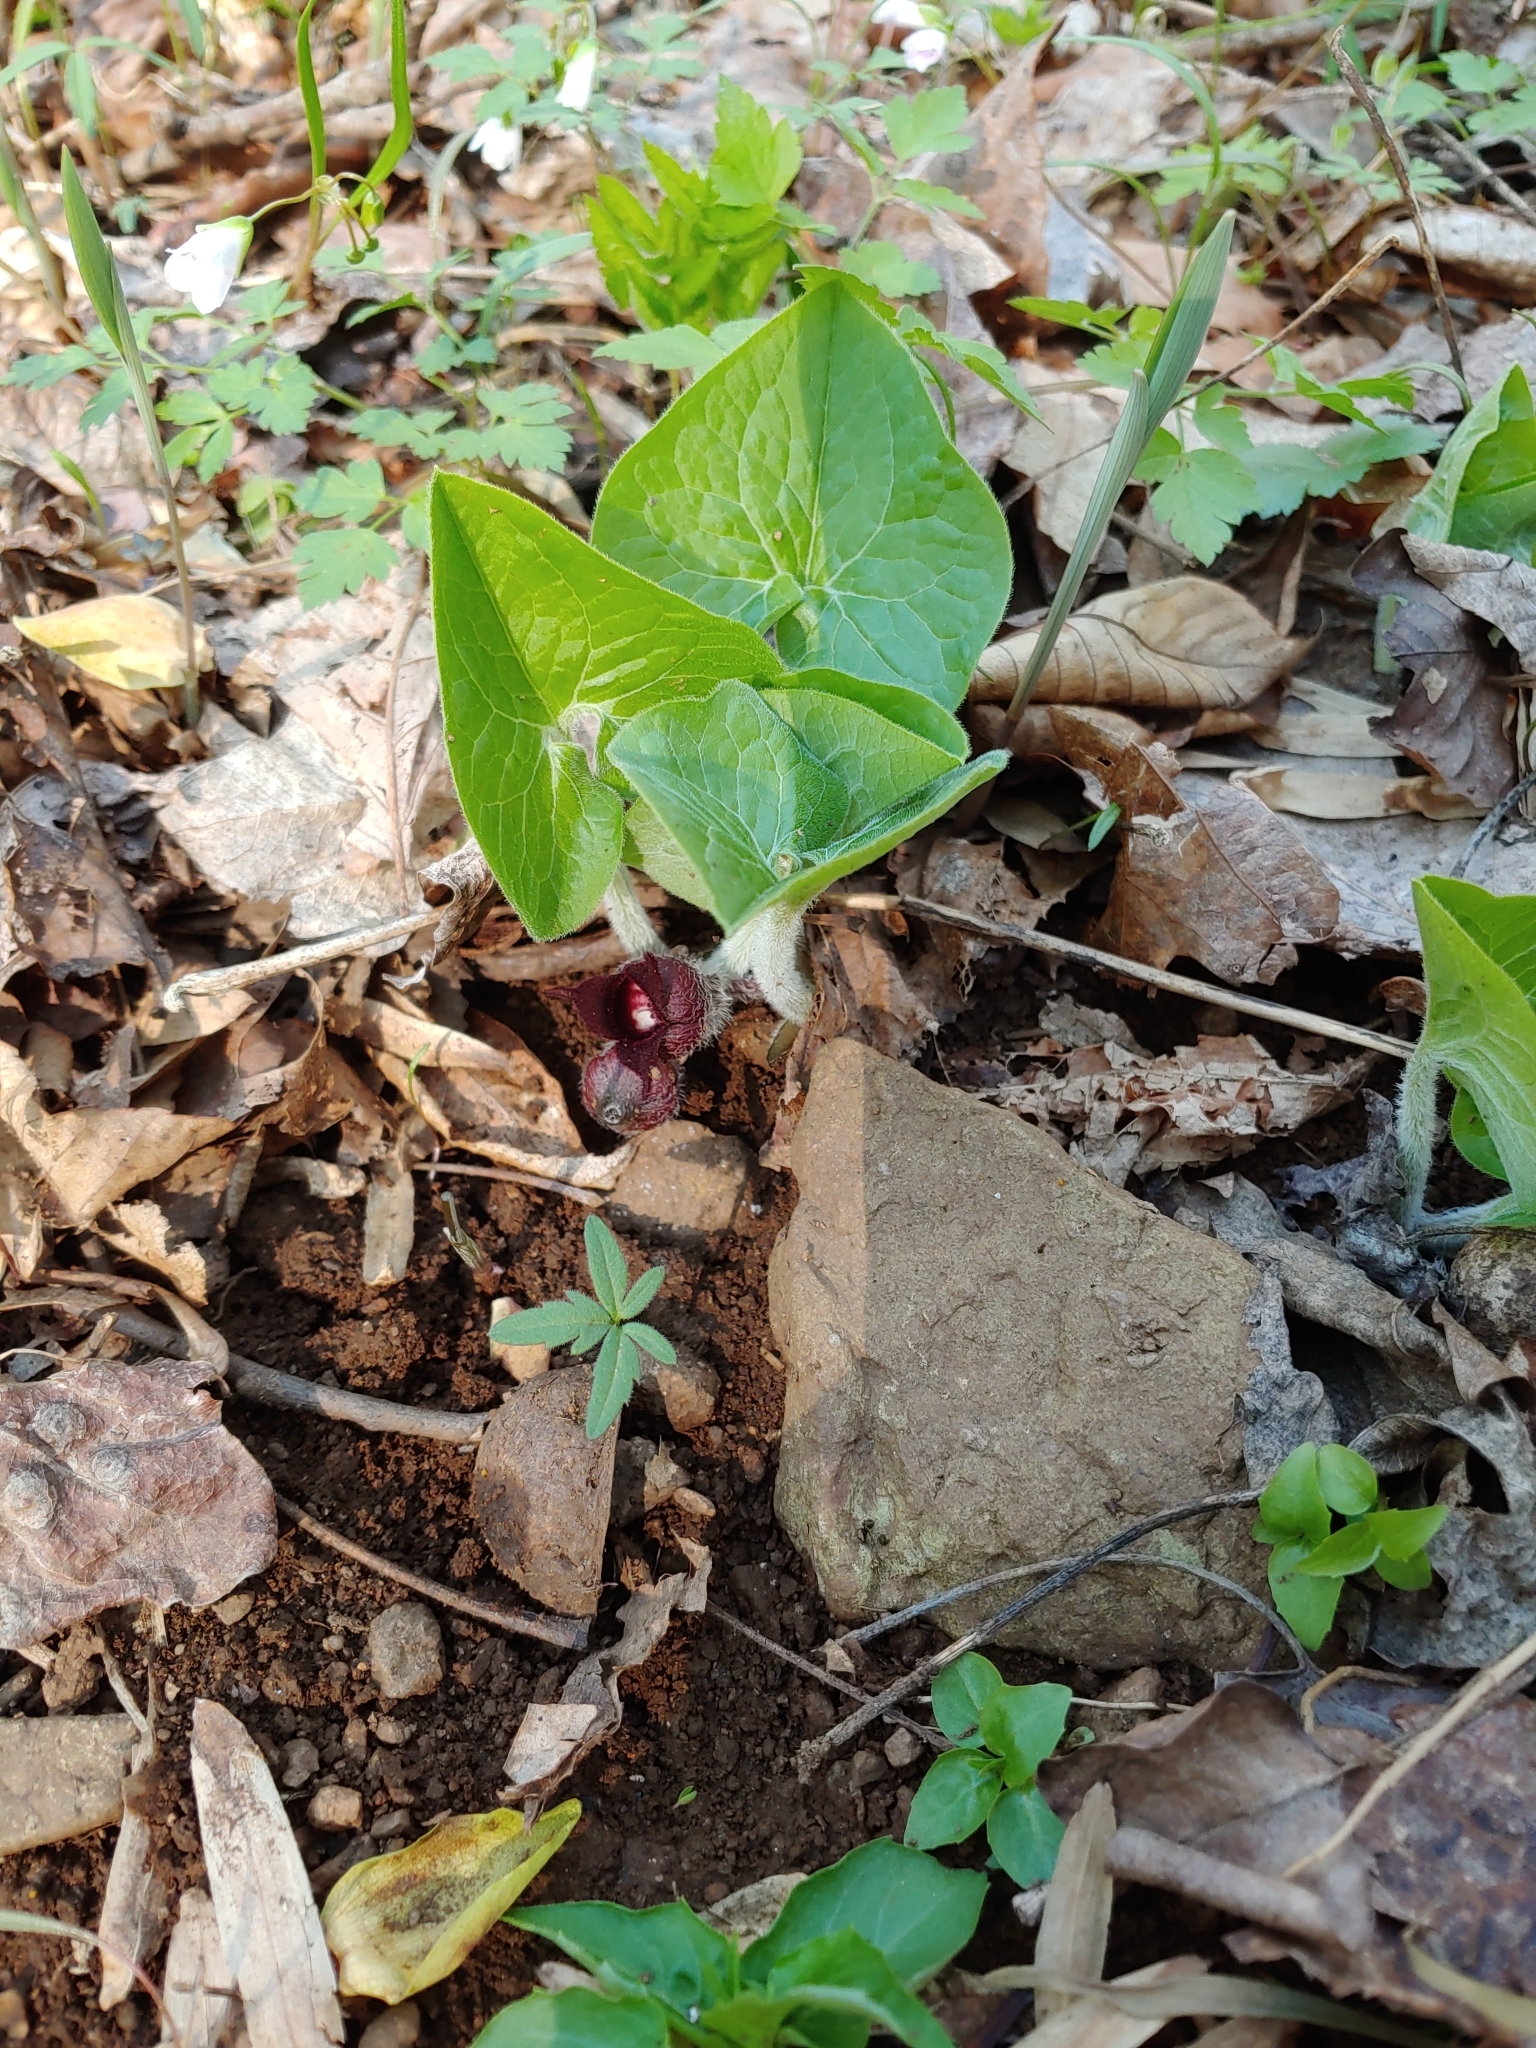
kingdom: Plantae
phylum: Tracheophyta
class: Magnoliopsida
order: Piperales
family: Aristolochiaceae
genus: Asarum
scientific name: Asarum canadense
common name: Wild ginger
